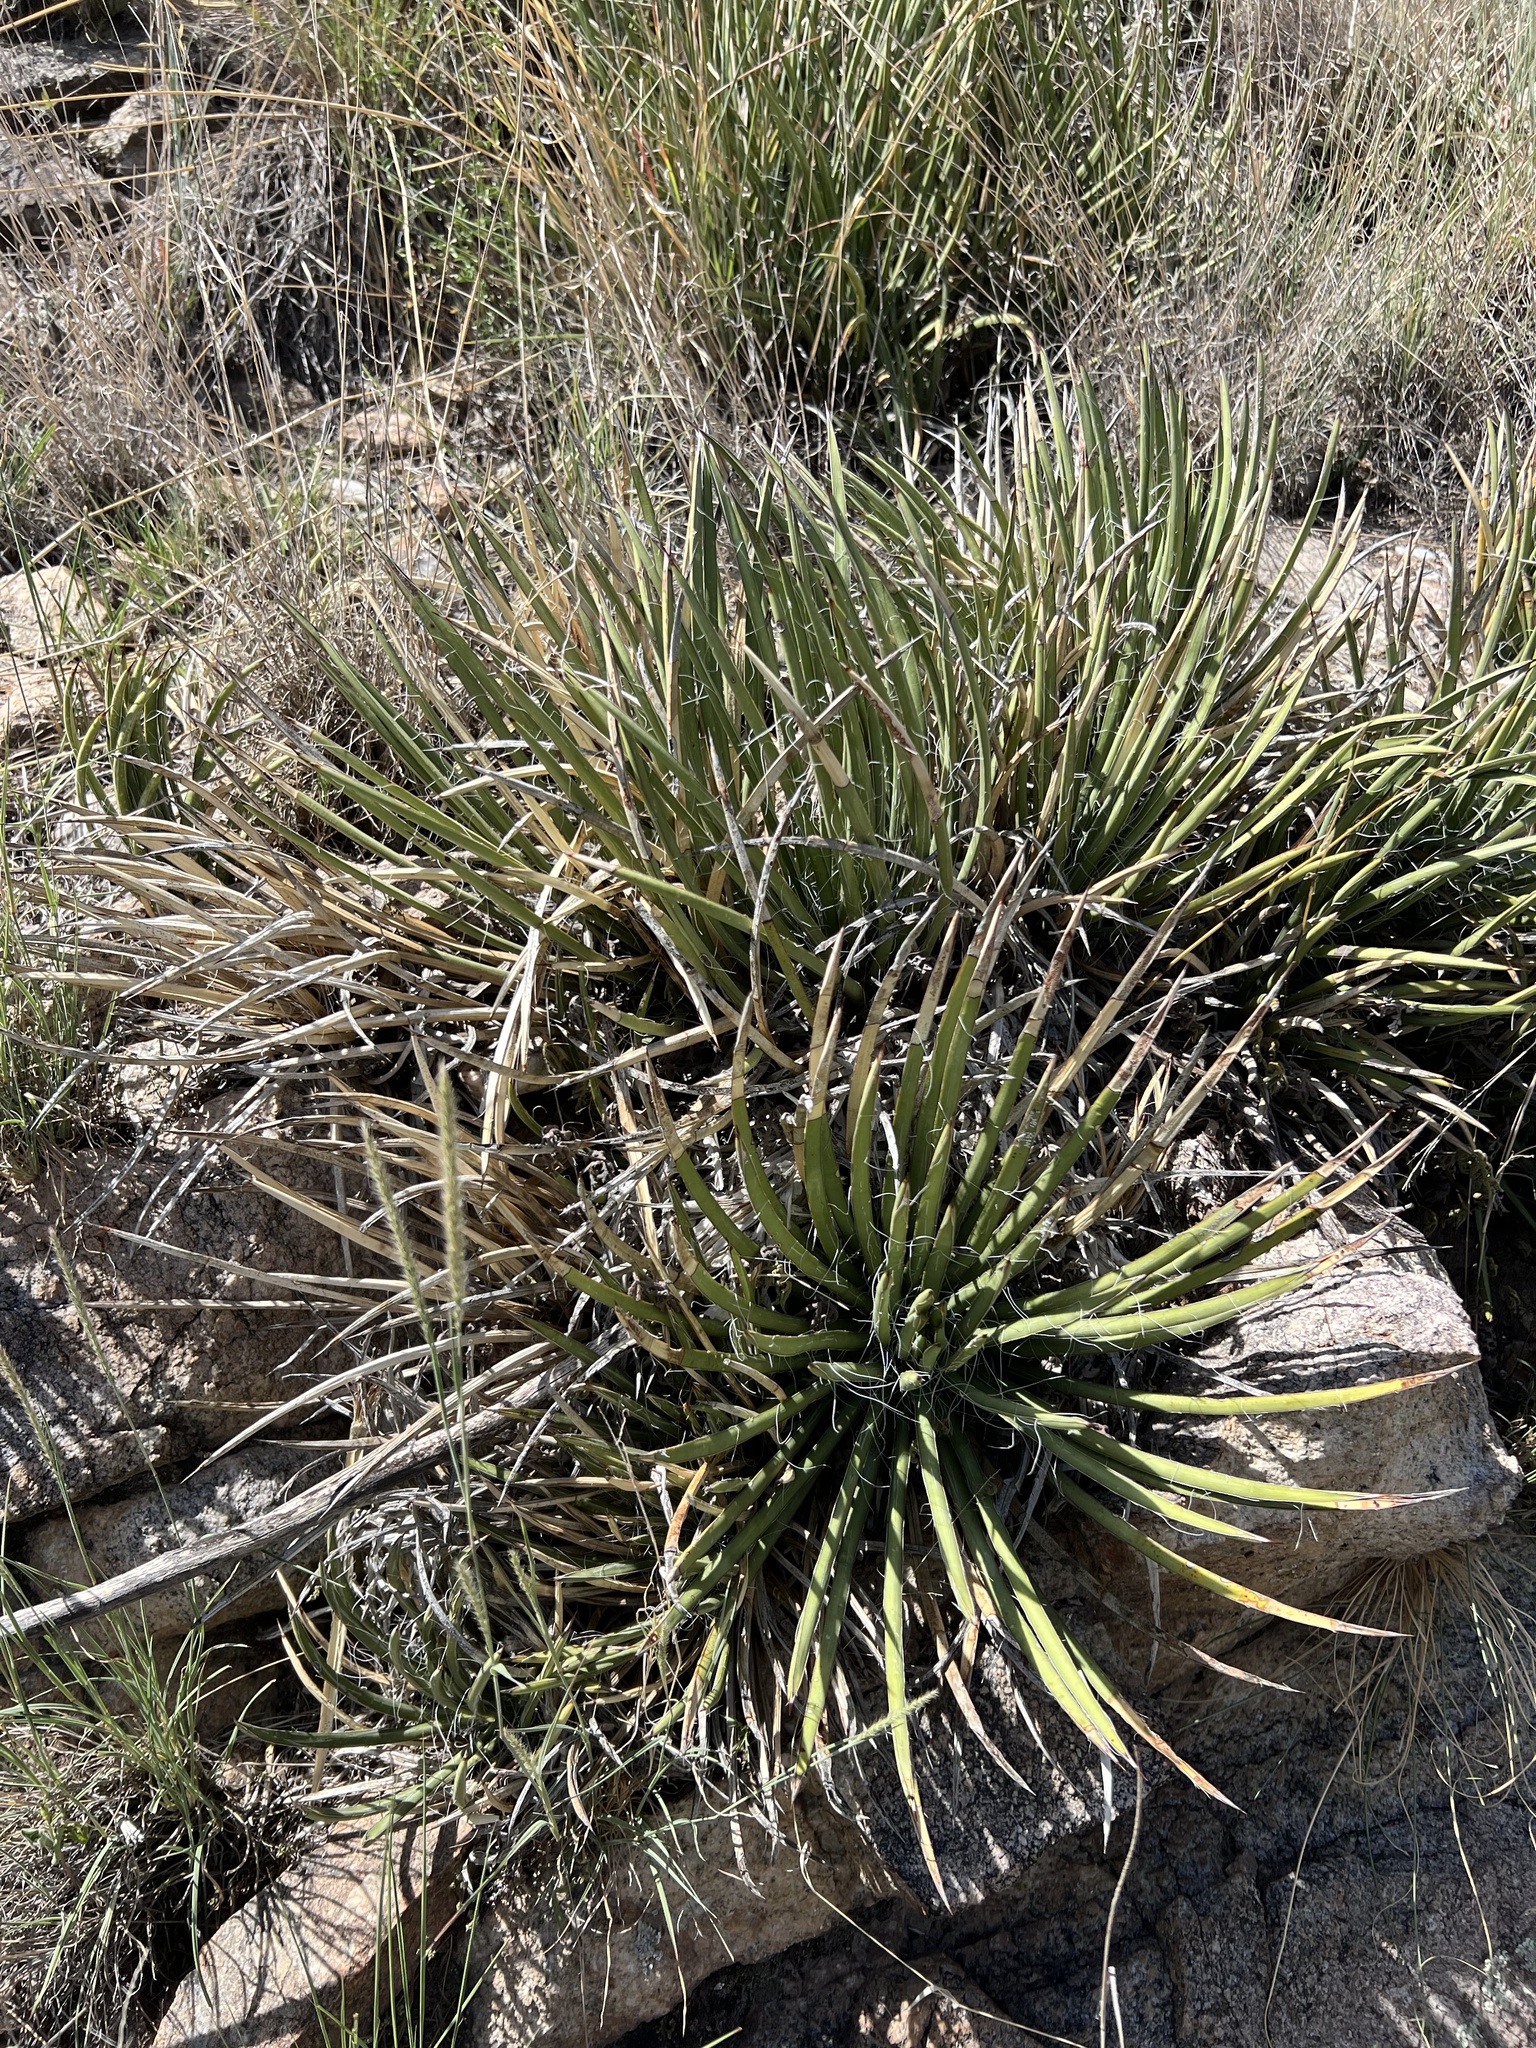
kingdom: Plantae
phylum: Tracheophyta
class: Liliopsida
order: Asparagales
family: Asparagaceae
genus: Agave
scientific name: Agave schottii
